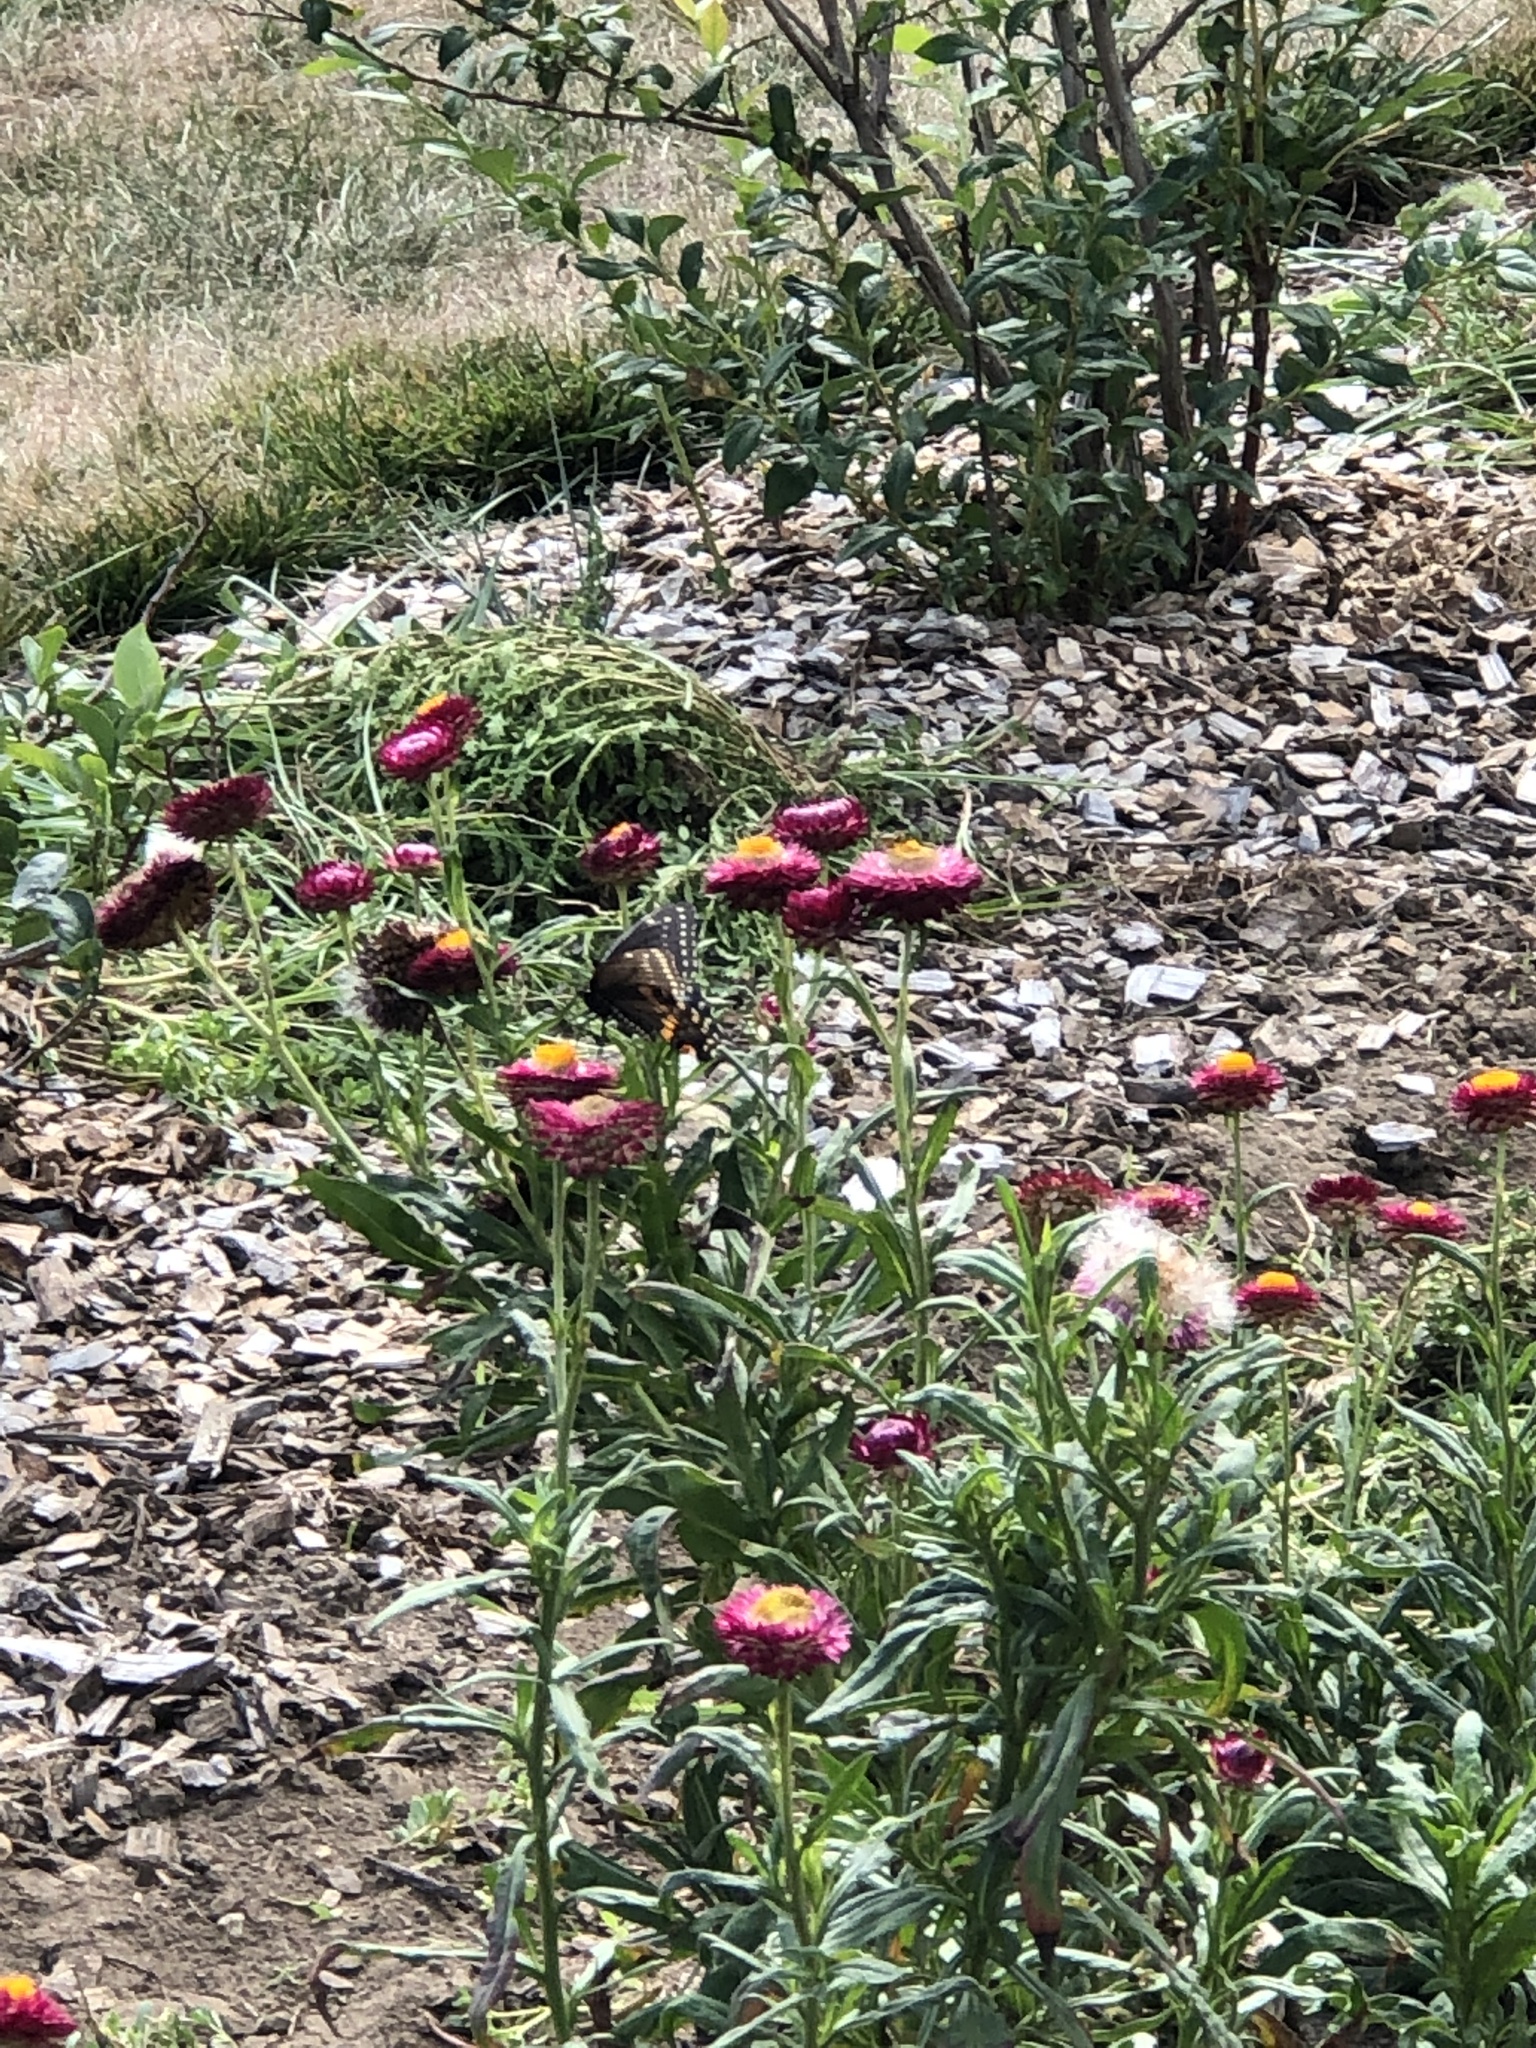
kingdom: Animalia
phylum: Arthropoda
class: Insecta
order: Lepidoptera
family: Papilionidae
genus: Papilio
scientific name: Papilio polyxenes
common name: Black swallowtail
